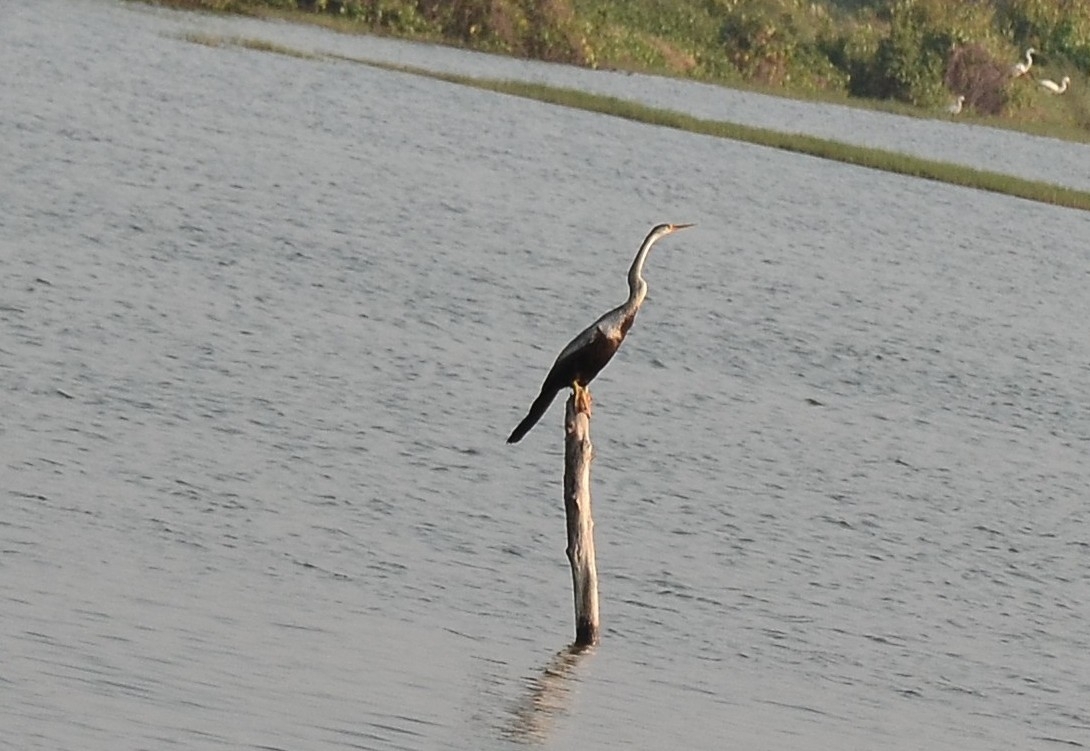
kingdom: Animalia
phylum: Chordata
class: Aves
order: Suliformes
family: Anhingidae
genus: Anhinga
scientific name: Anhinga melanogaster
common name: Oriental darter
